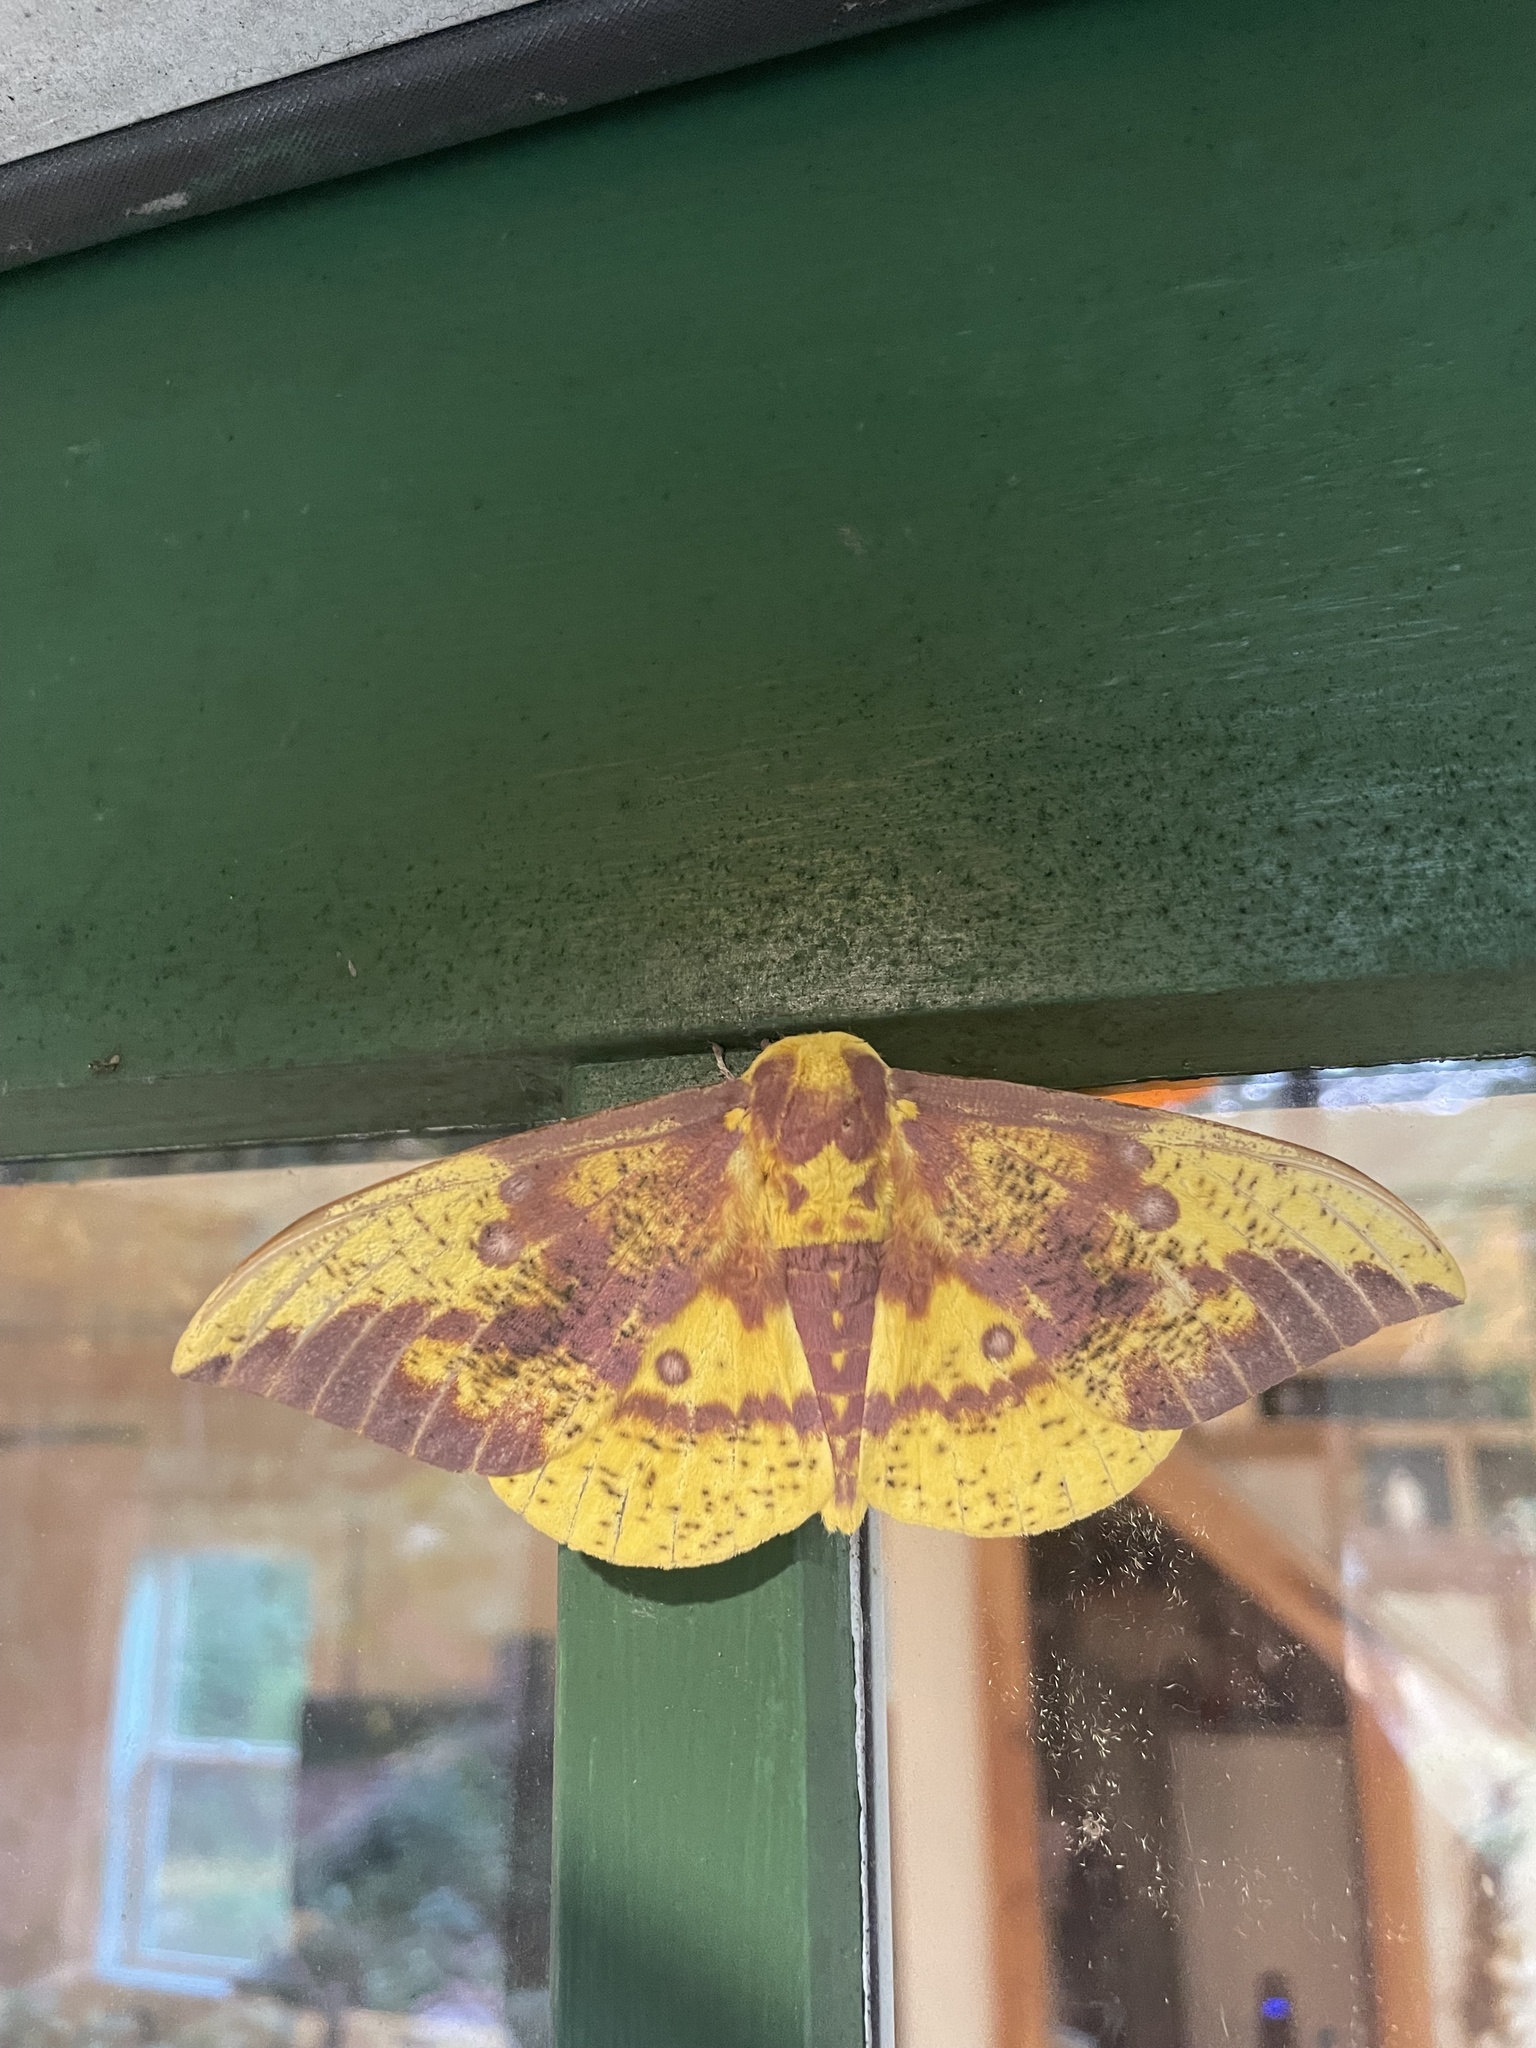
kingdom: Animalia
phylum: Arthropoda
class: Insecta
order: Lepidoptera
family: Saturniidae
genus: Eacles
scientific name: Eacles imperialis
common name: Imperial moth
